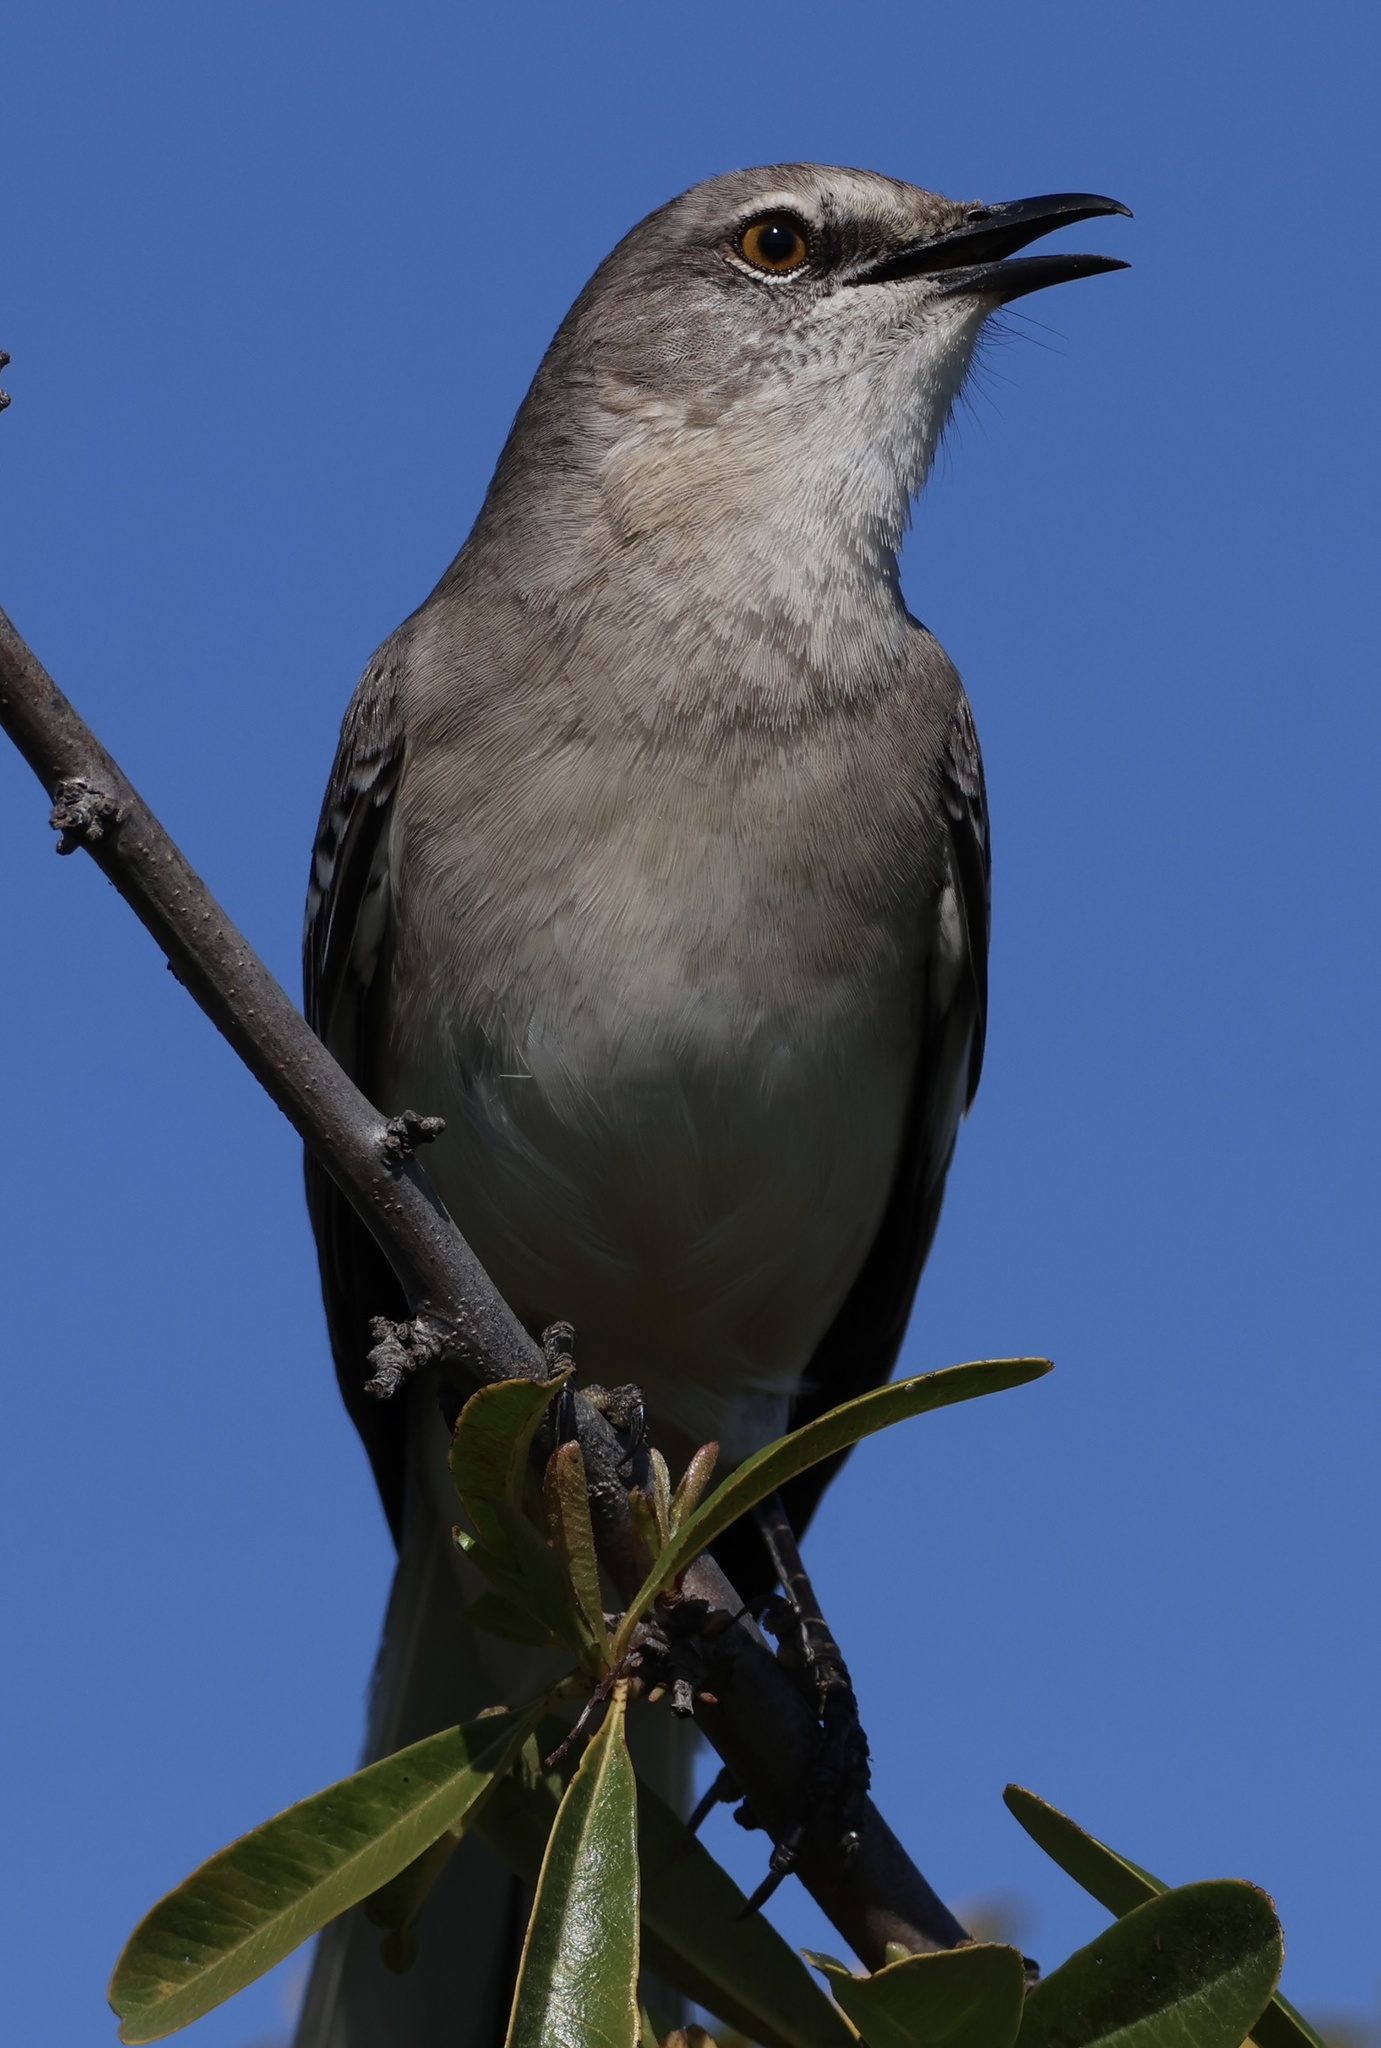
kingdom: Animalia
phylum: Chordata
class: Aves
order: Passeriformes
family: Mimidae
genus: Mimus
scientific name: Mimus polyglottos
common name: Northern mockingbird
